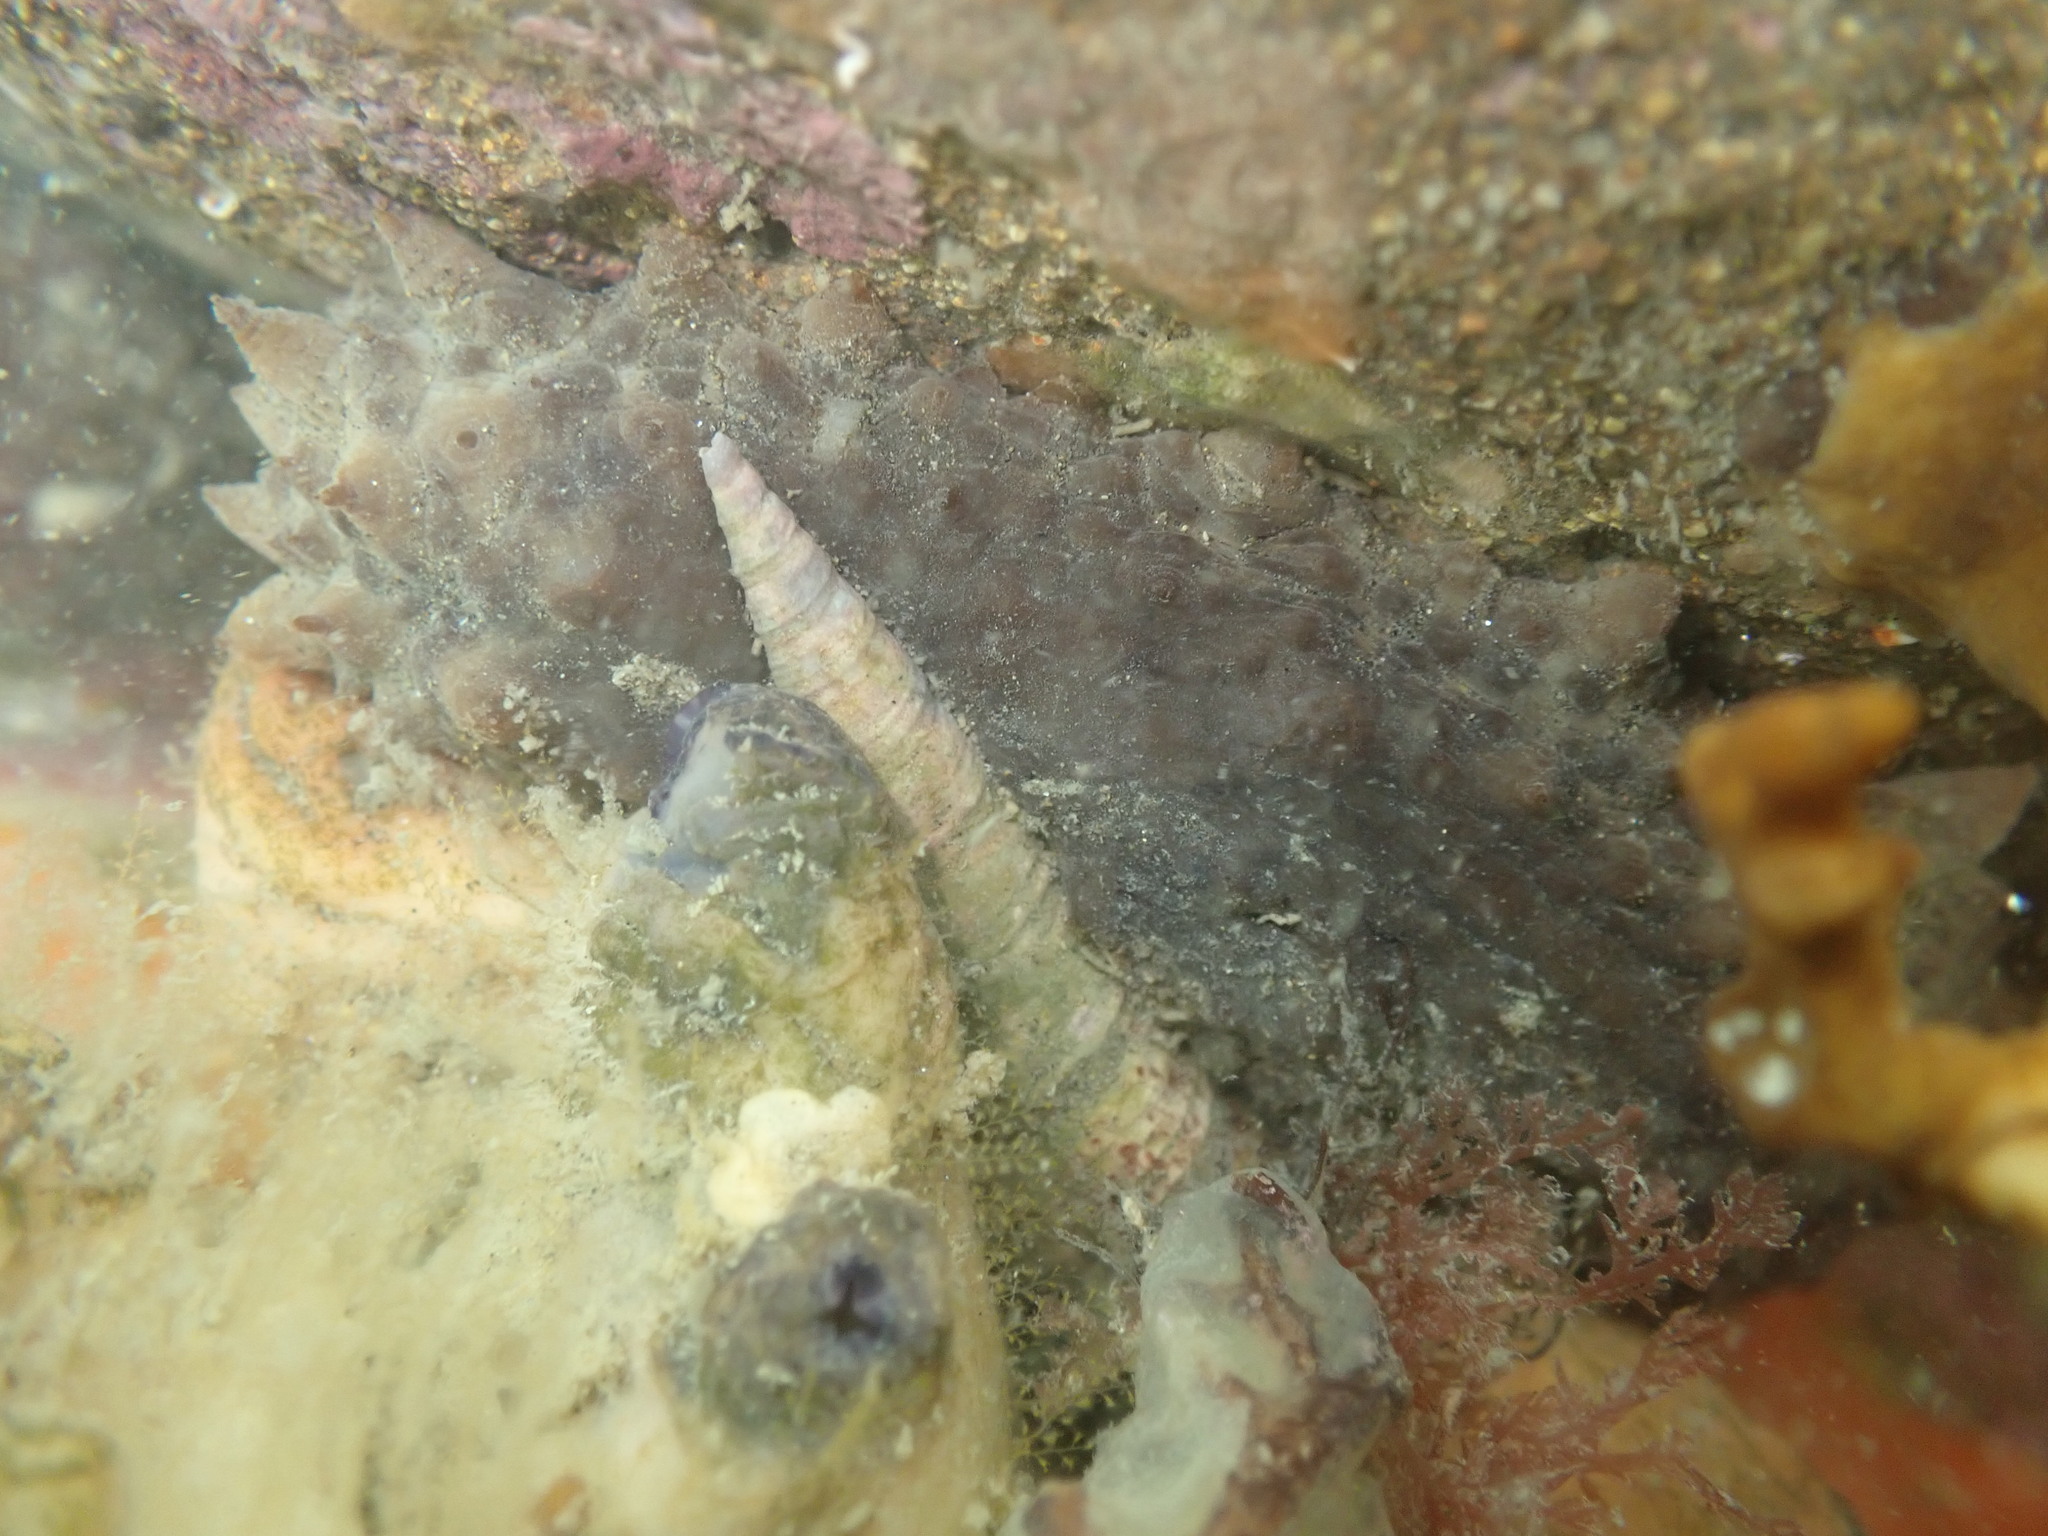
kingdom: Animalia
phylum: Echinodermata
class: Holothuroidea
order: Synallactida
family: Stichopodidae
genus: Australostichopus
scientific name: Australostichopus mollis
